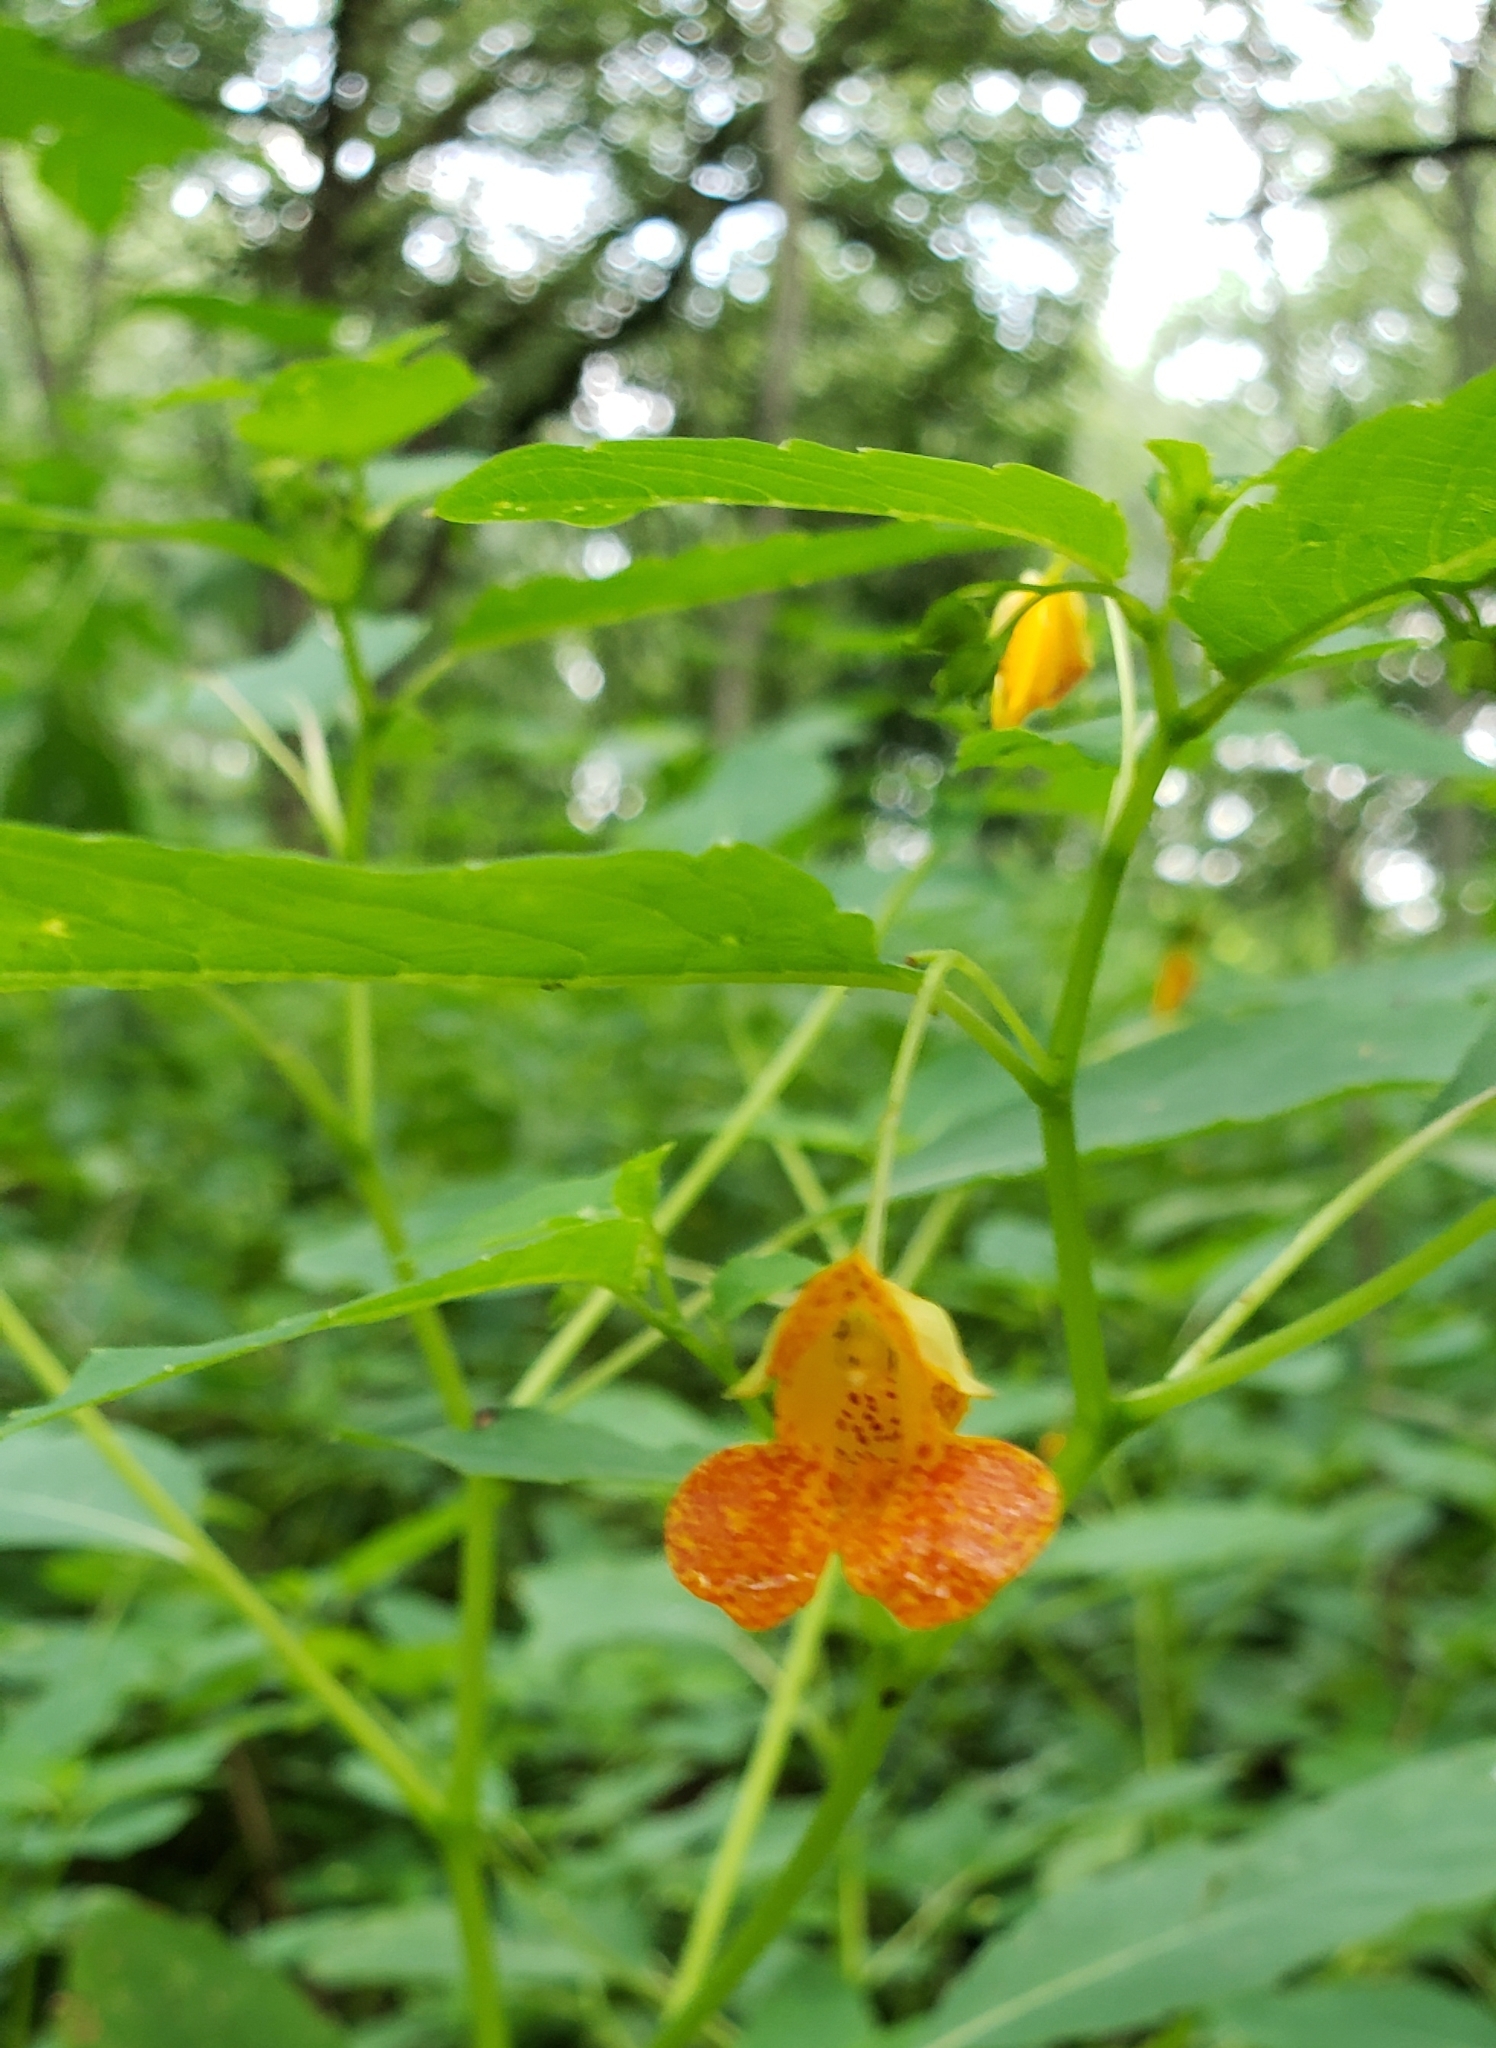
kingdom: Plantae
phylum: Tracheophyta
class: Magnoliopsida
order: Ericales
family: Balsaminaceae
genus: Impatiens
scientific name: Impatiens capensis
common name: Orange balsam
